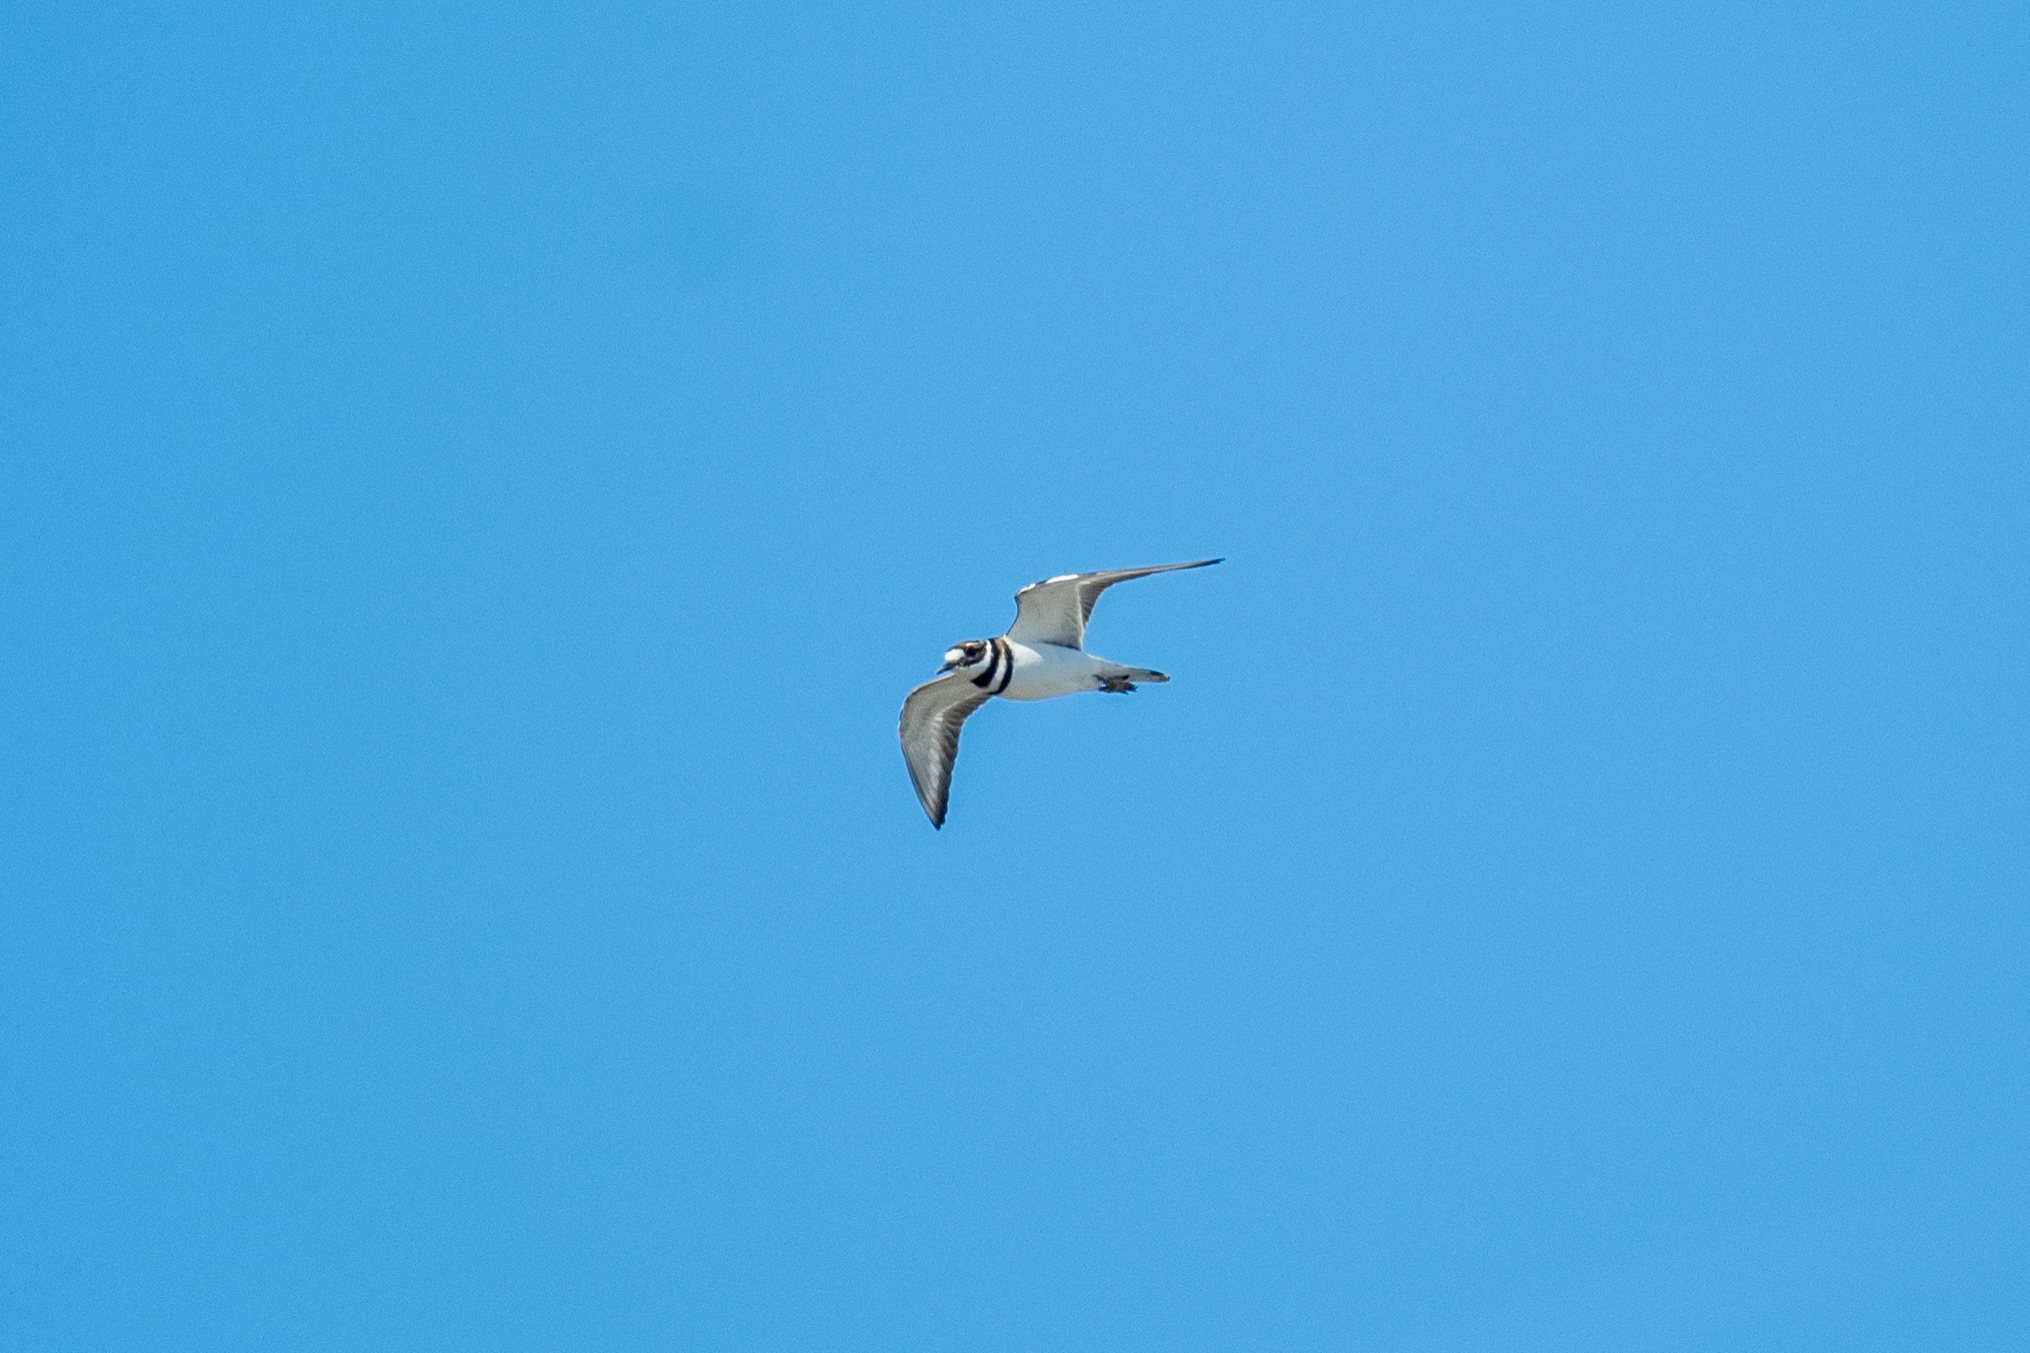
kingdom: Animalia
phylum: Chordata
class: Aves
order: Charadriiformes
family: Charadriidae
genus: Charadrius
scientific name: Charadrius vociferus
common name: Killdeer
